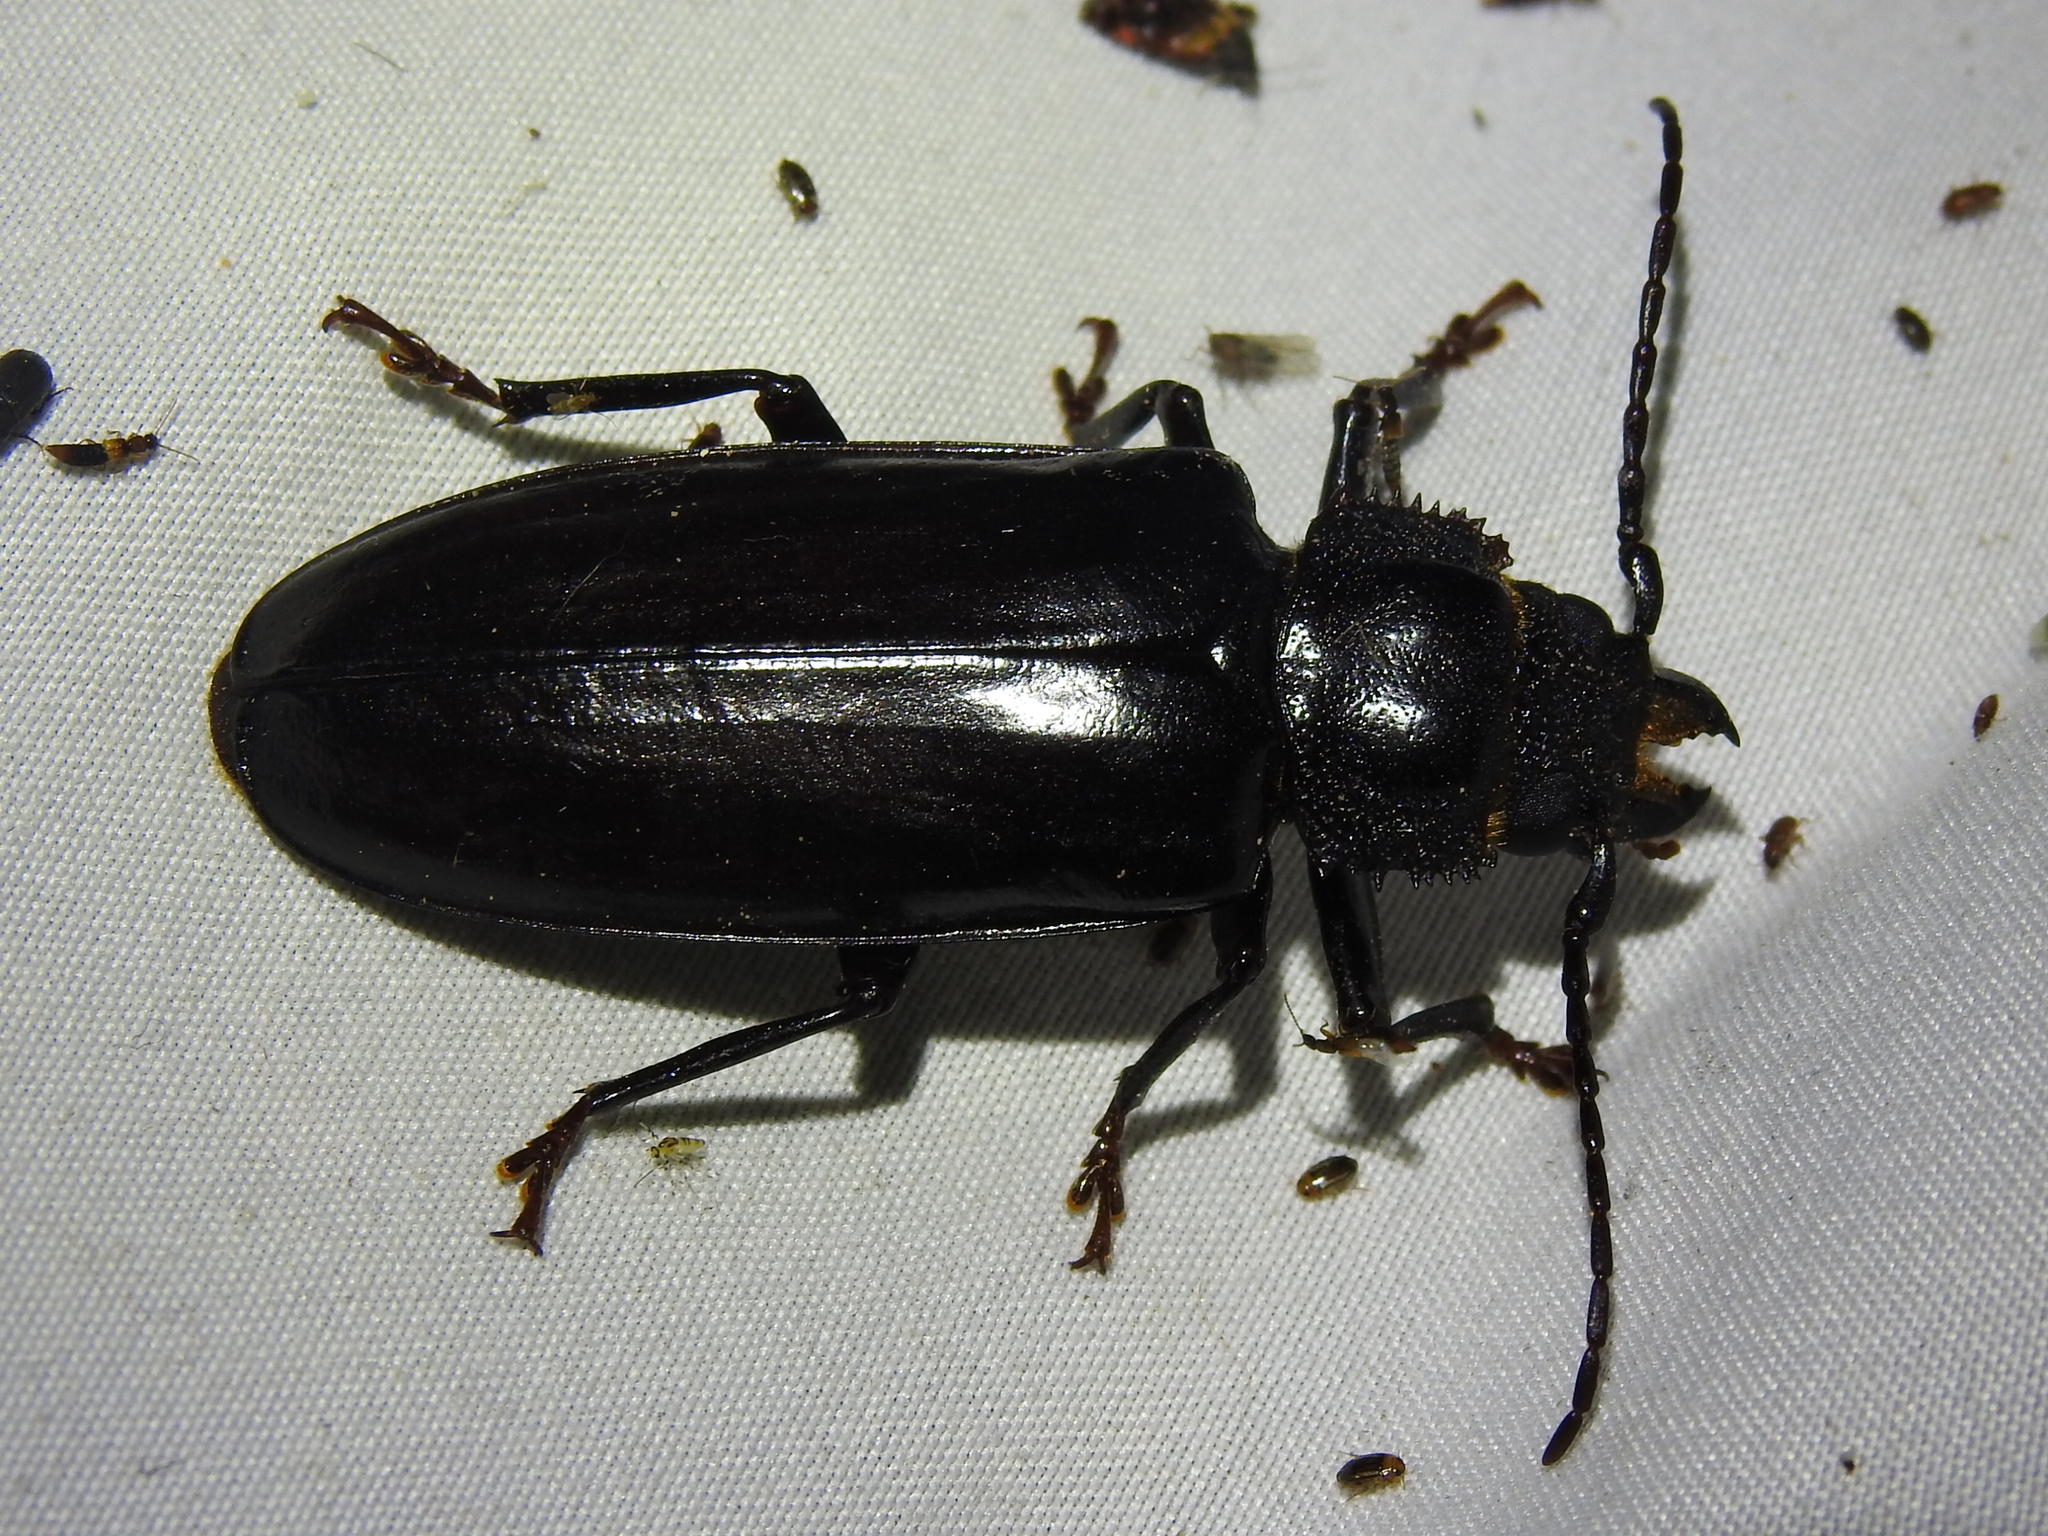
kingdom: Animalia
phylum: Arthropoda
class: Insecta
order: Coleoptera
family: Cerambycidae
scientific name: Cerambycidae
